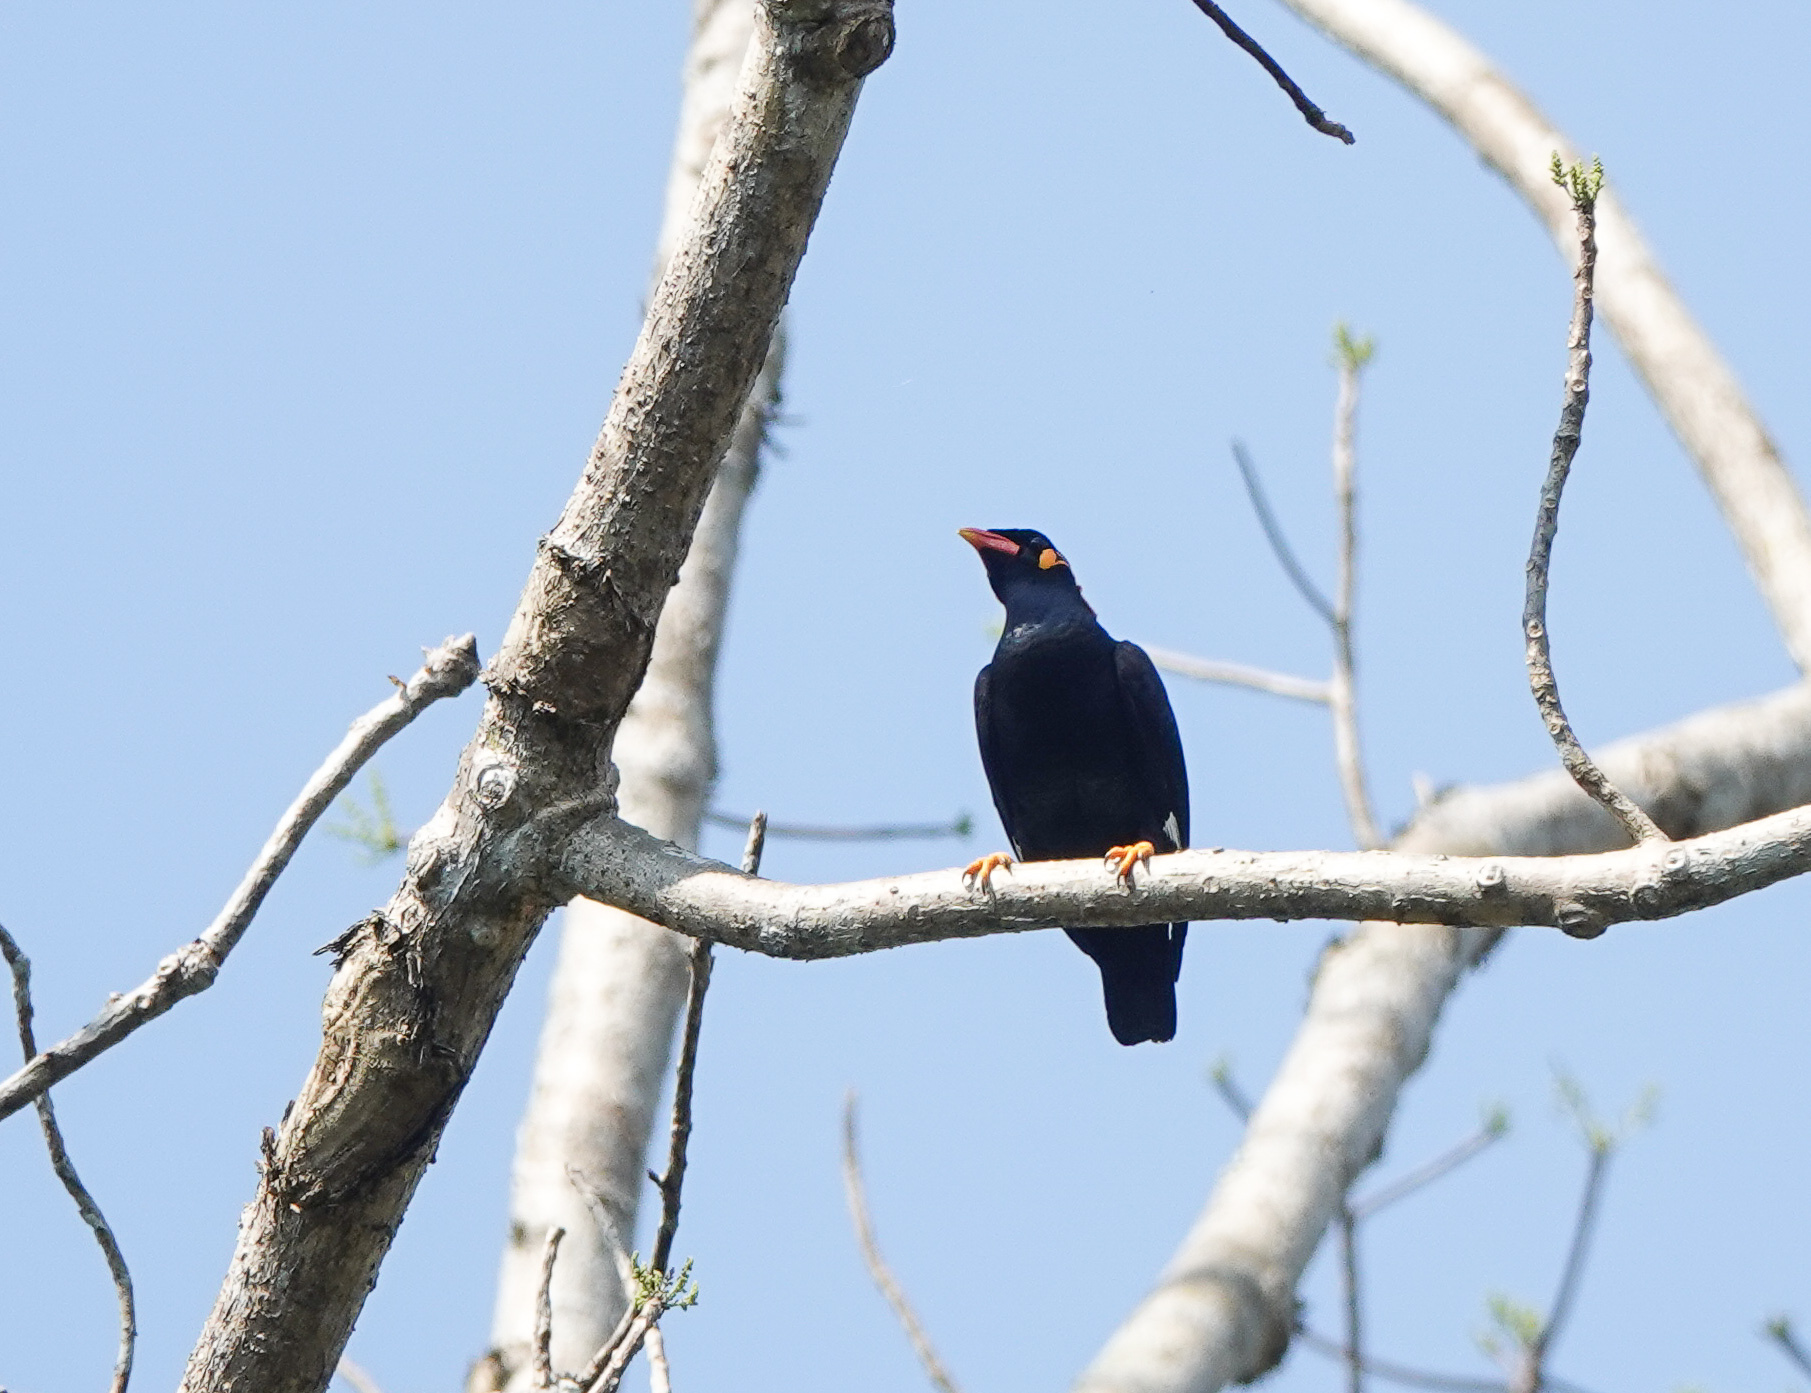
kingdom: Animalia
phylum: Chordata
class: Aves
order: Passeriformes
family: Sturnidae
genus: Gracula
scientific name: Gracula religiosa
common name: Common hill myna
